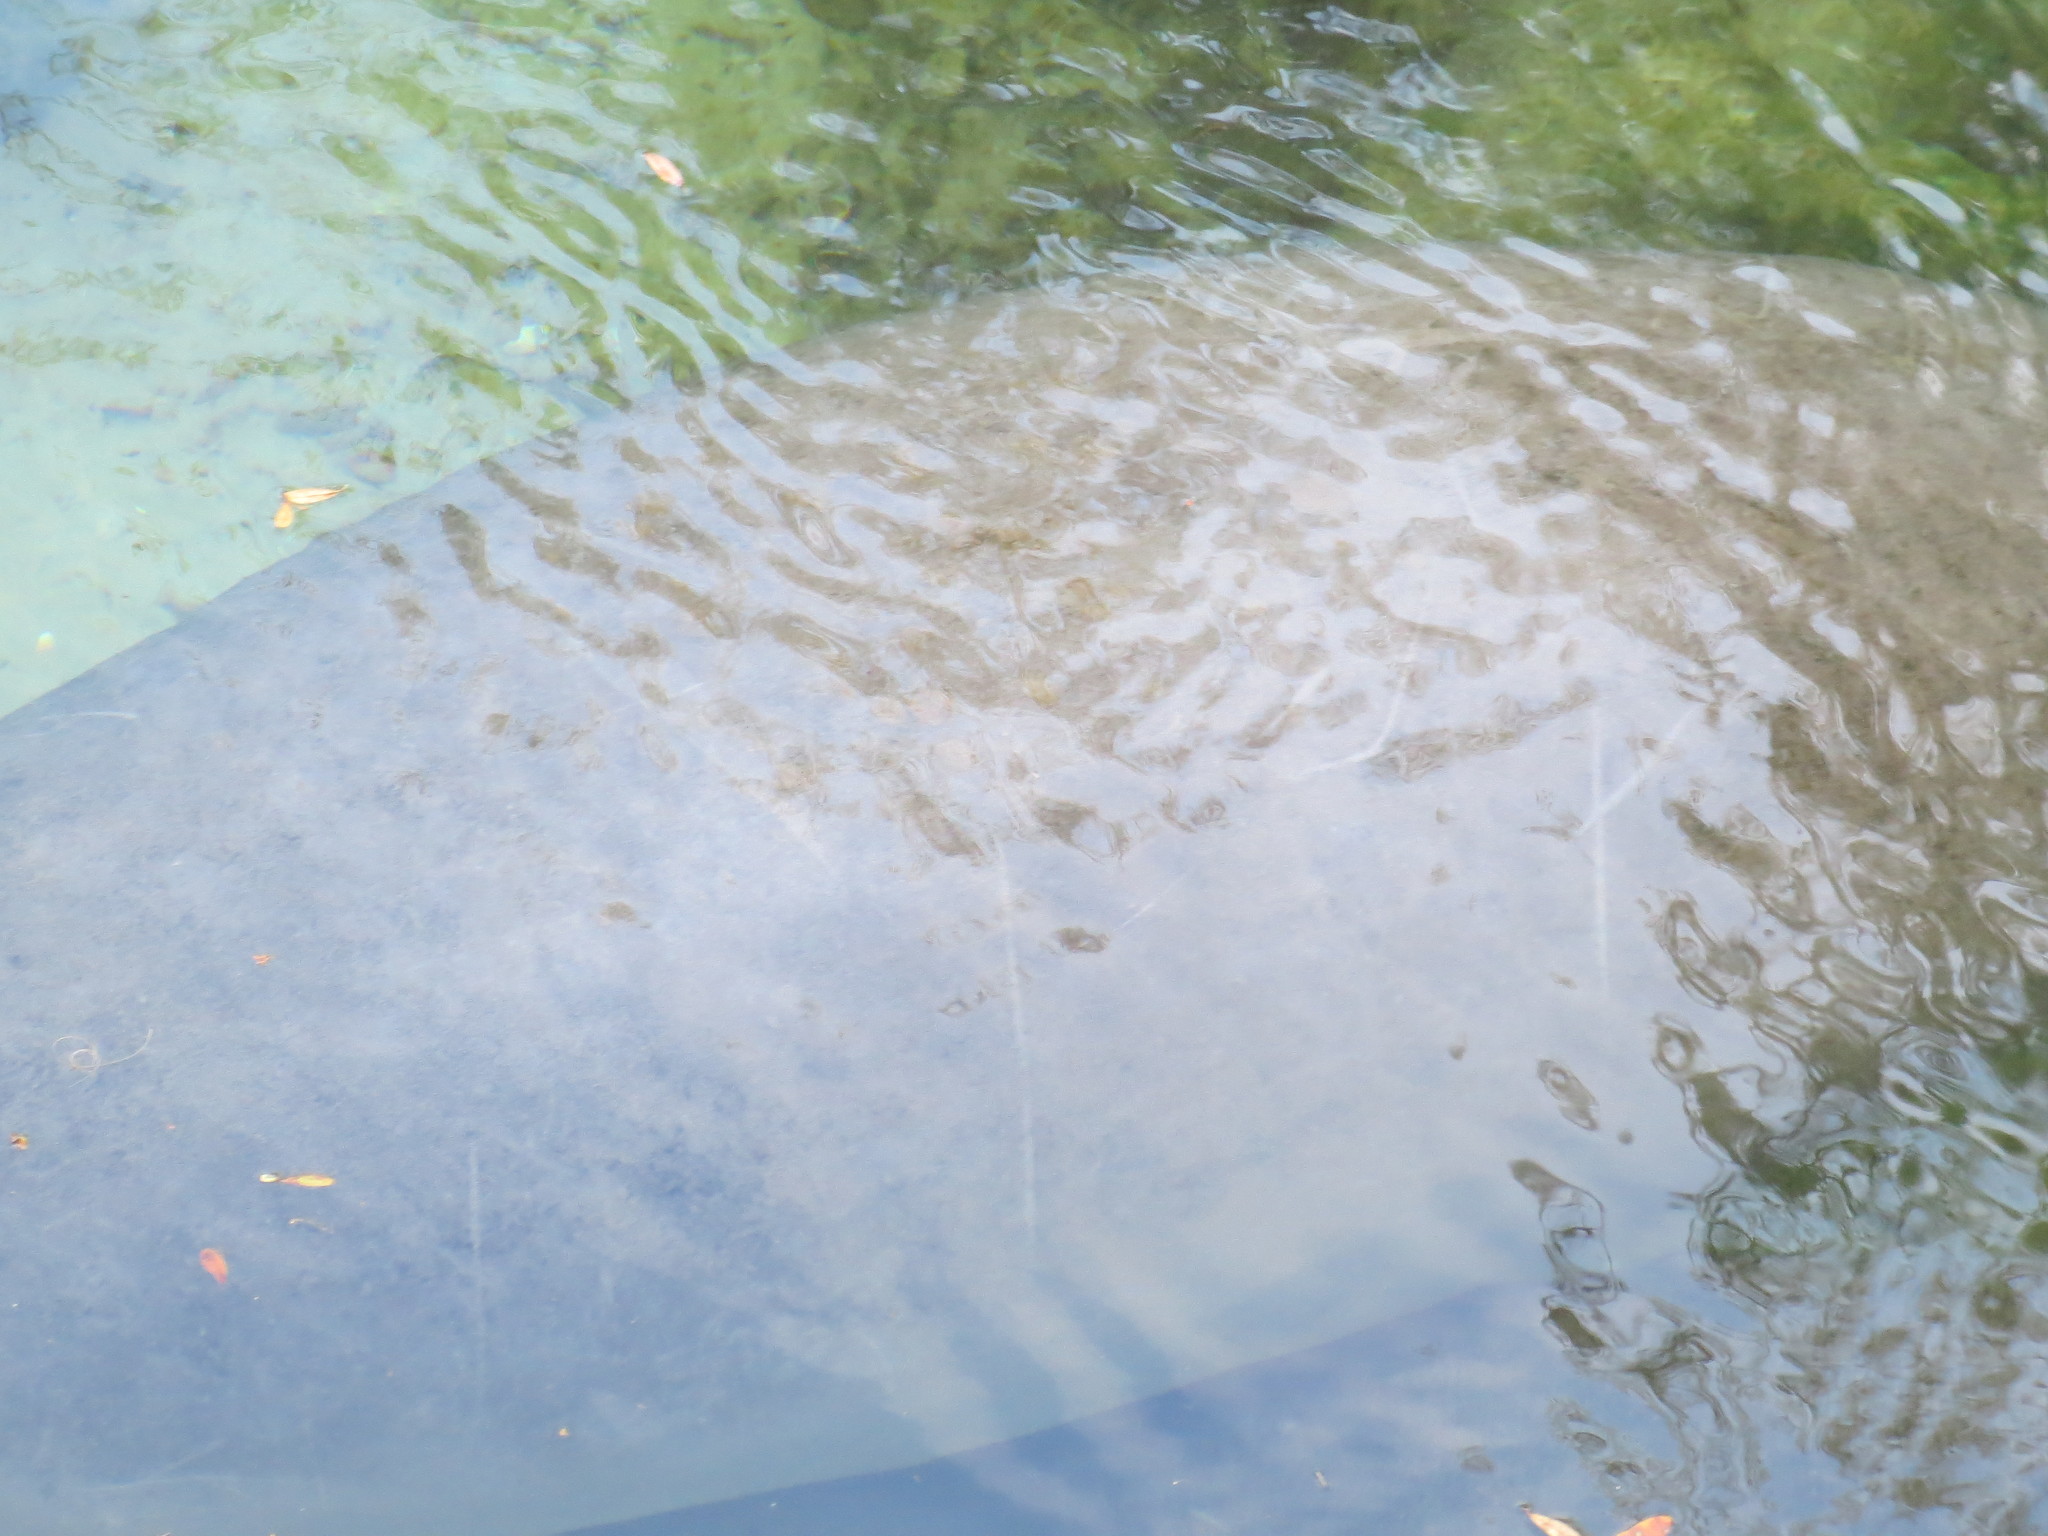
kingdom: Animalia
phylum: Chordata
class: Mammalia
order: Sirenia
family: Trichechidae
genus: Trichechus
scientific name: Trichechus manatus
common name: West indian manatee
